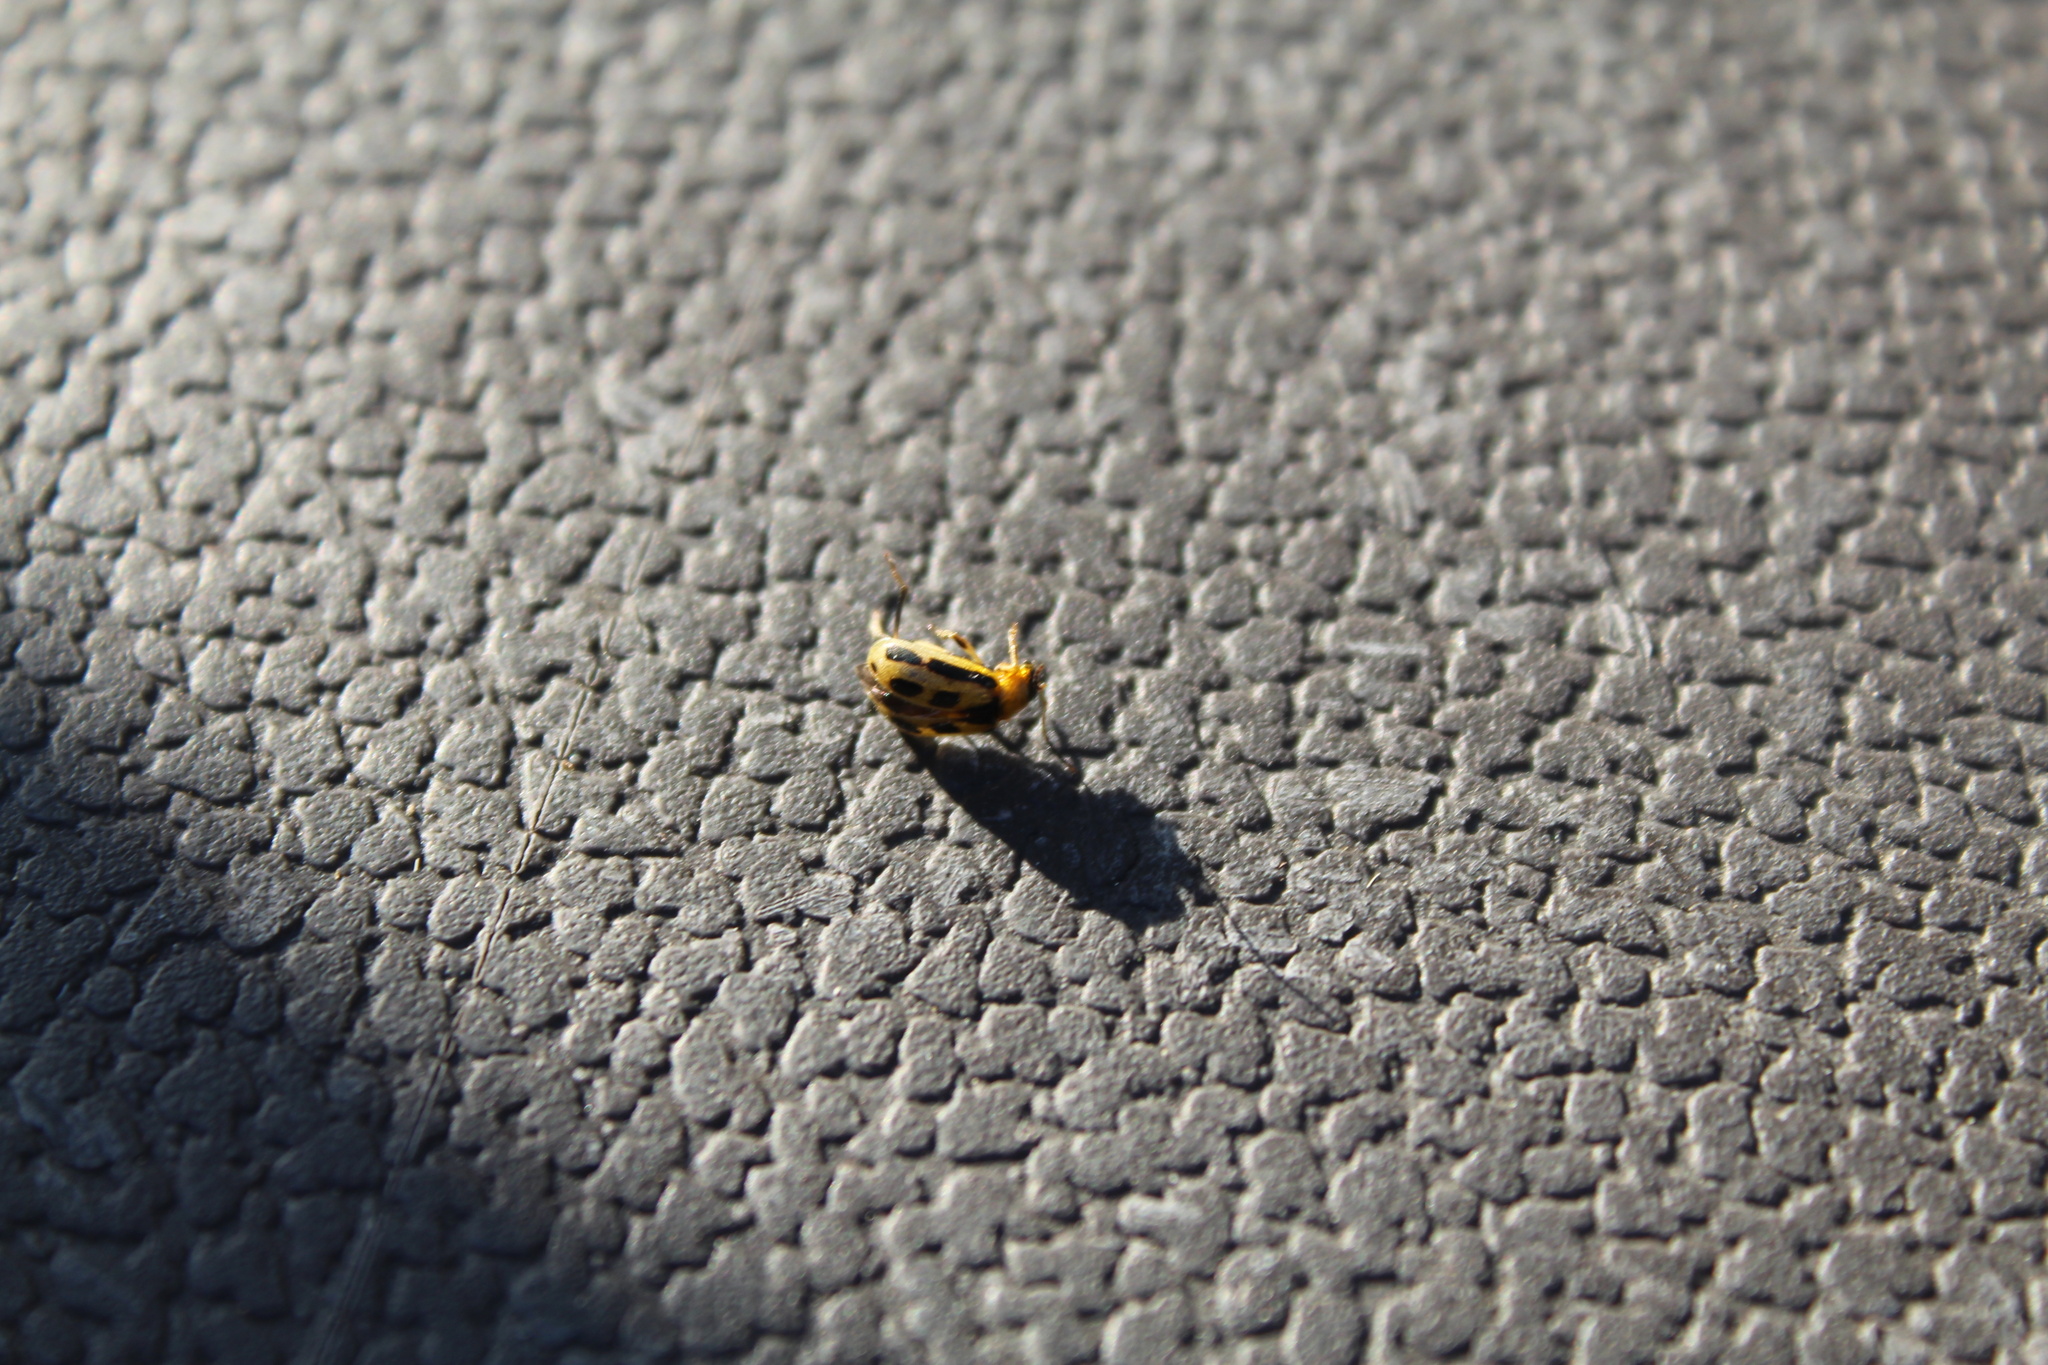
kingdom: Animalia
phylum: Arthropoda
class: Insecta
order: Coleoptera
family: Chrysomelidae
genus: Cerotoma
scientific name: Cerotoma trifurcata
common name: Bean leaf beetle
